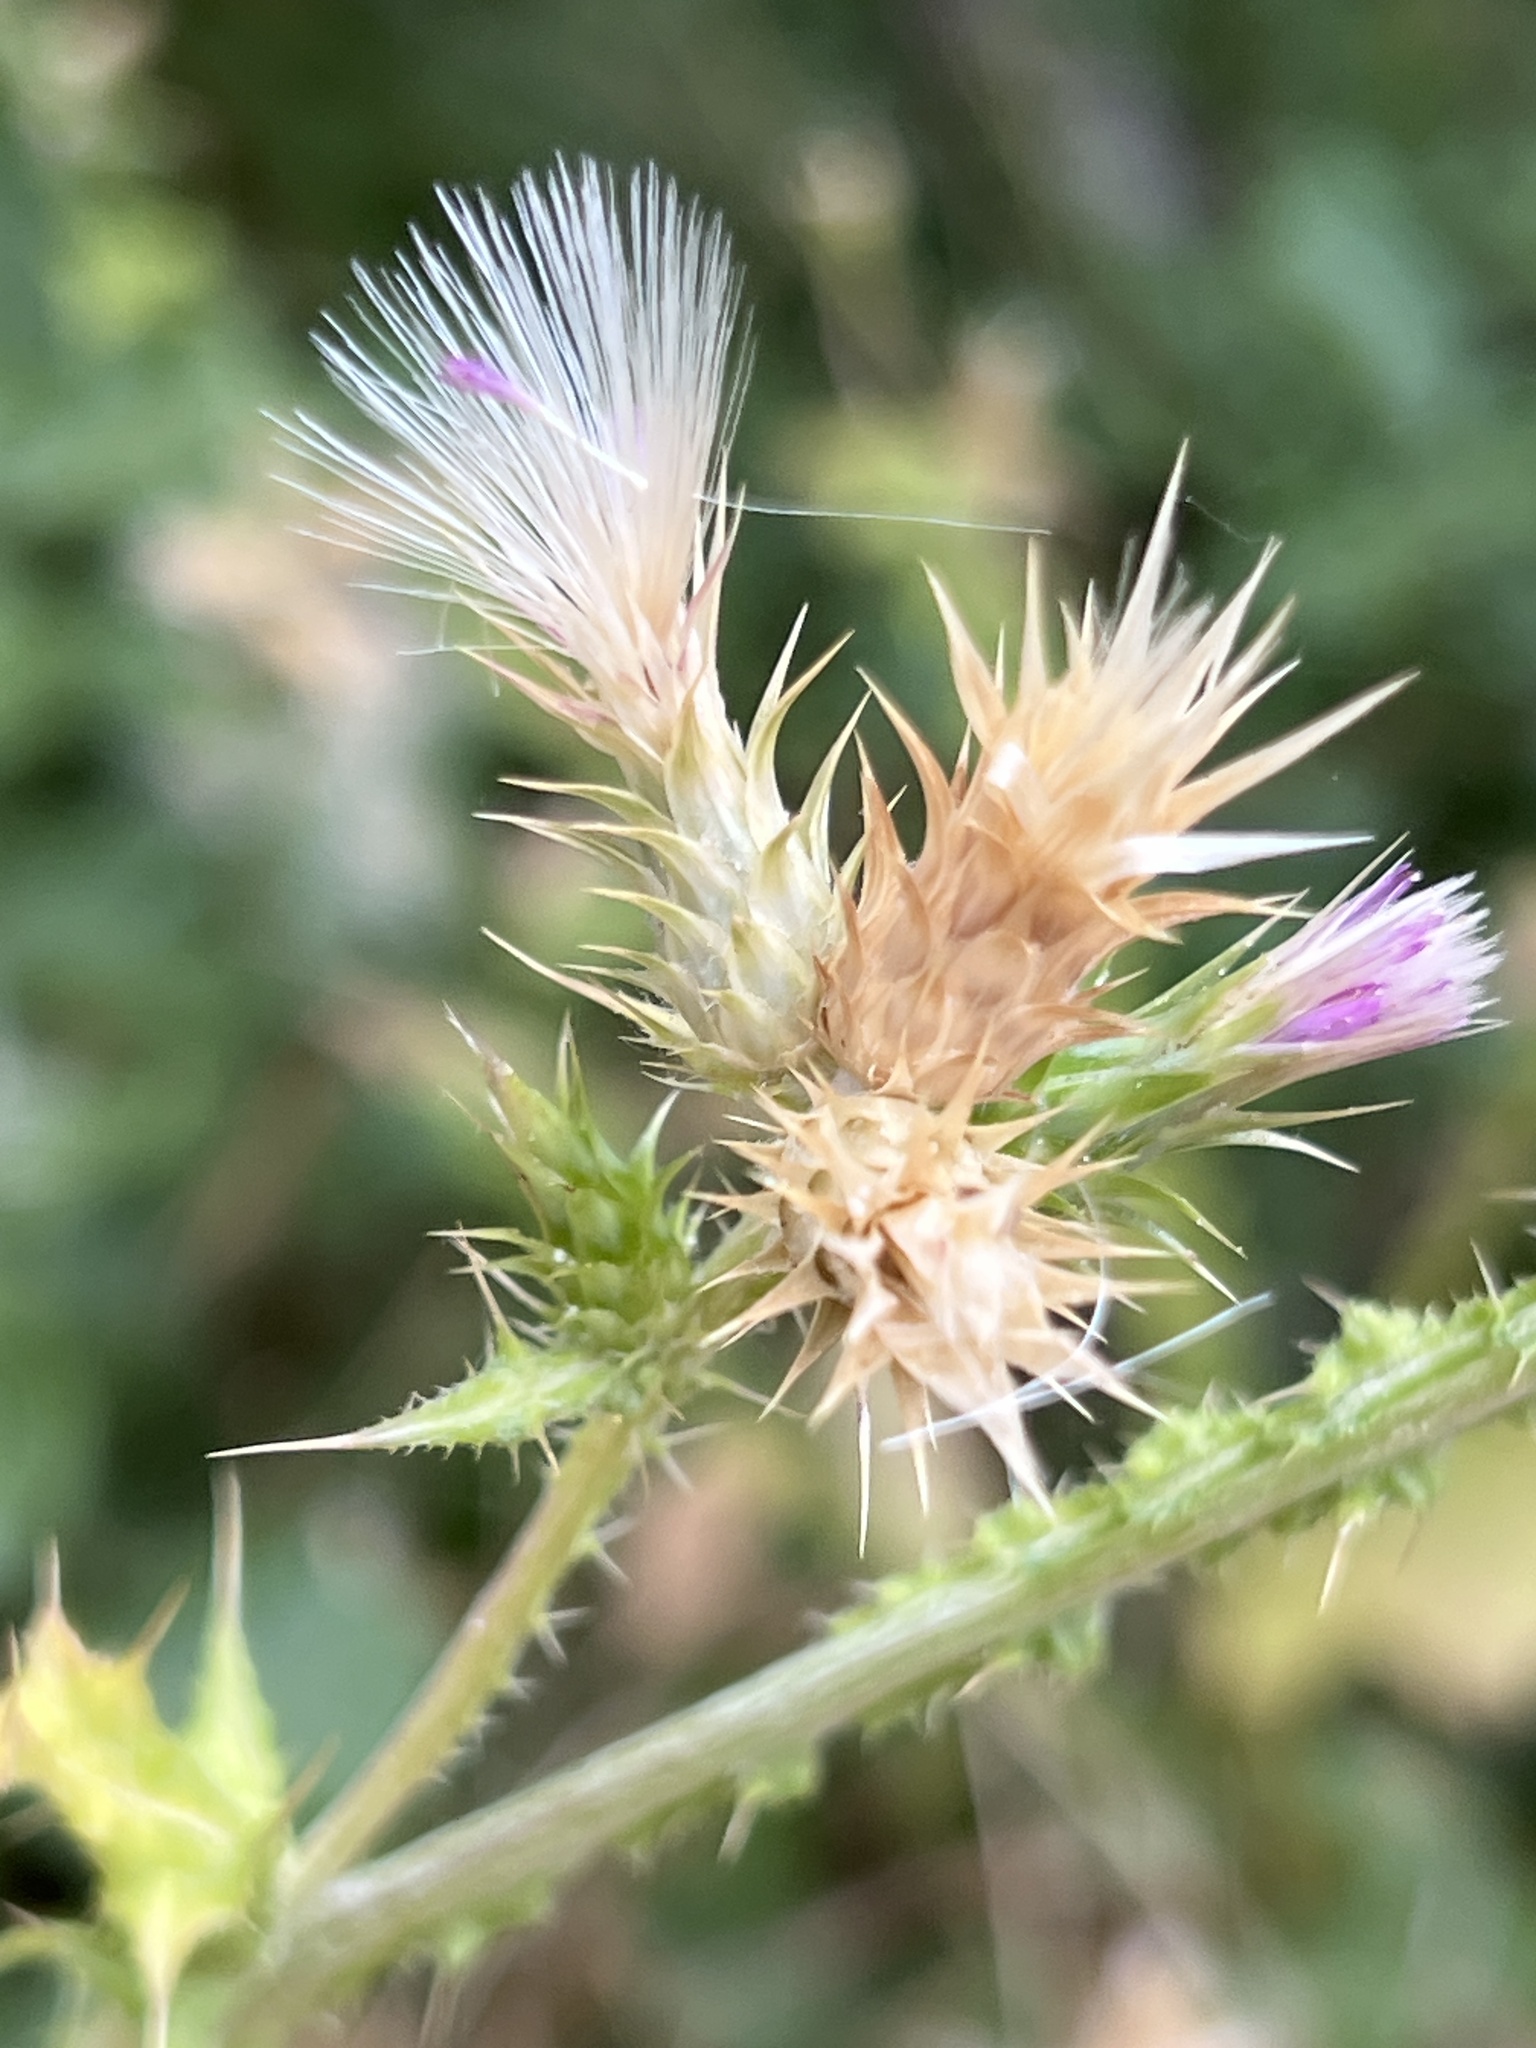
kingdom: Plantae
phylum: Tracheophyta
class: Magnoliopsida
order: Asterales
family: Asteraceae
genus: Carduus
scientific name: Carduus pycnocephalus
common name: Plymouth thistle
